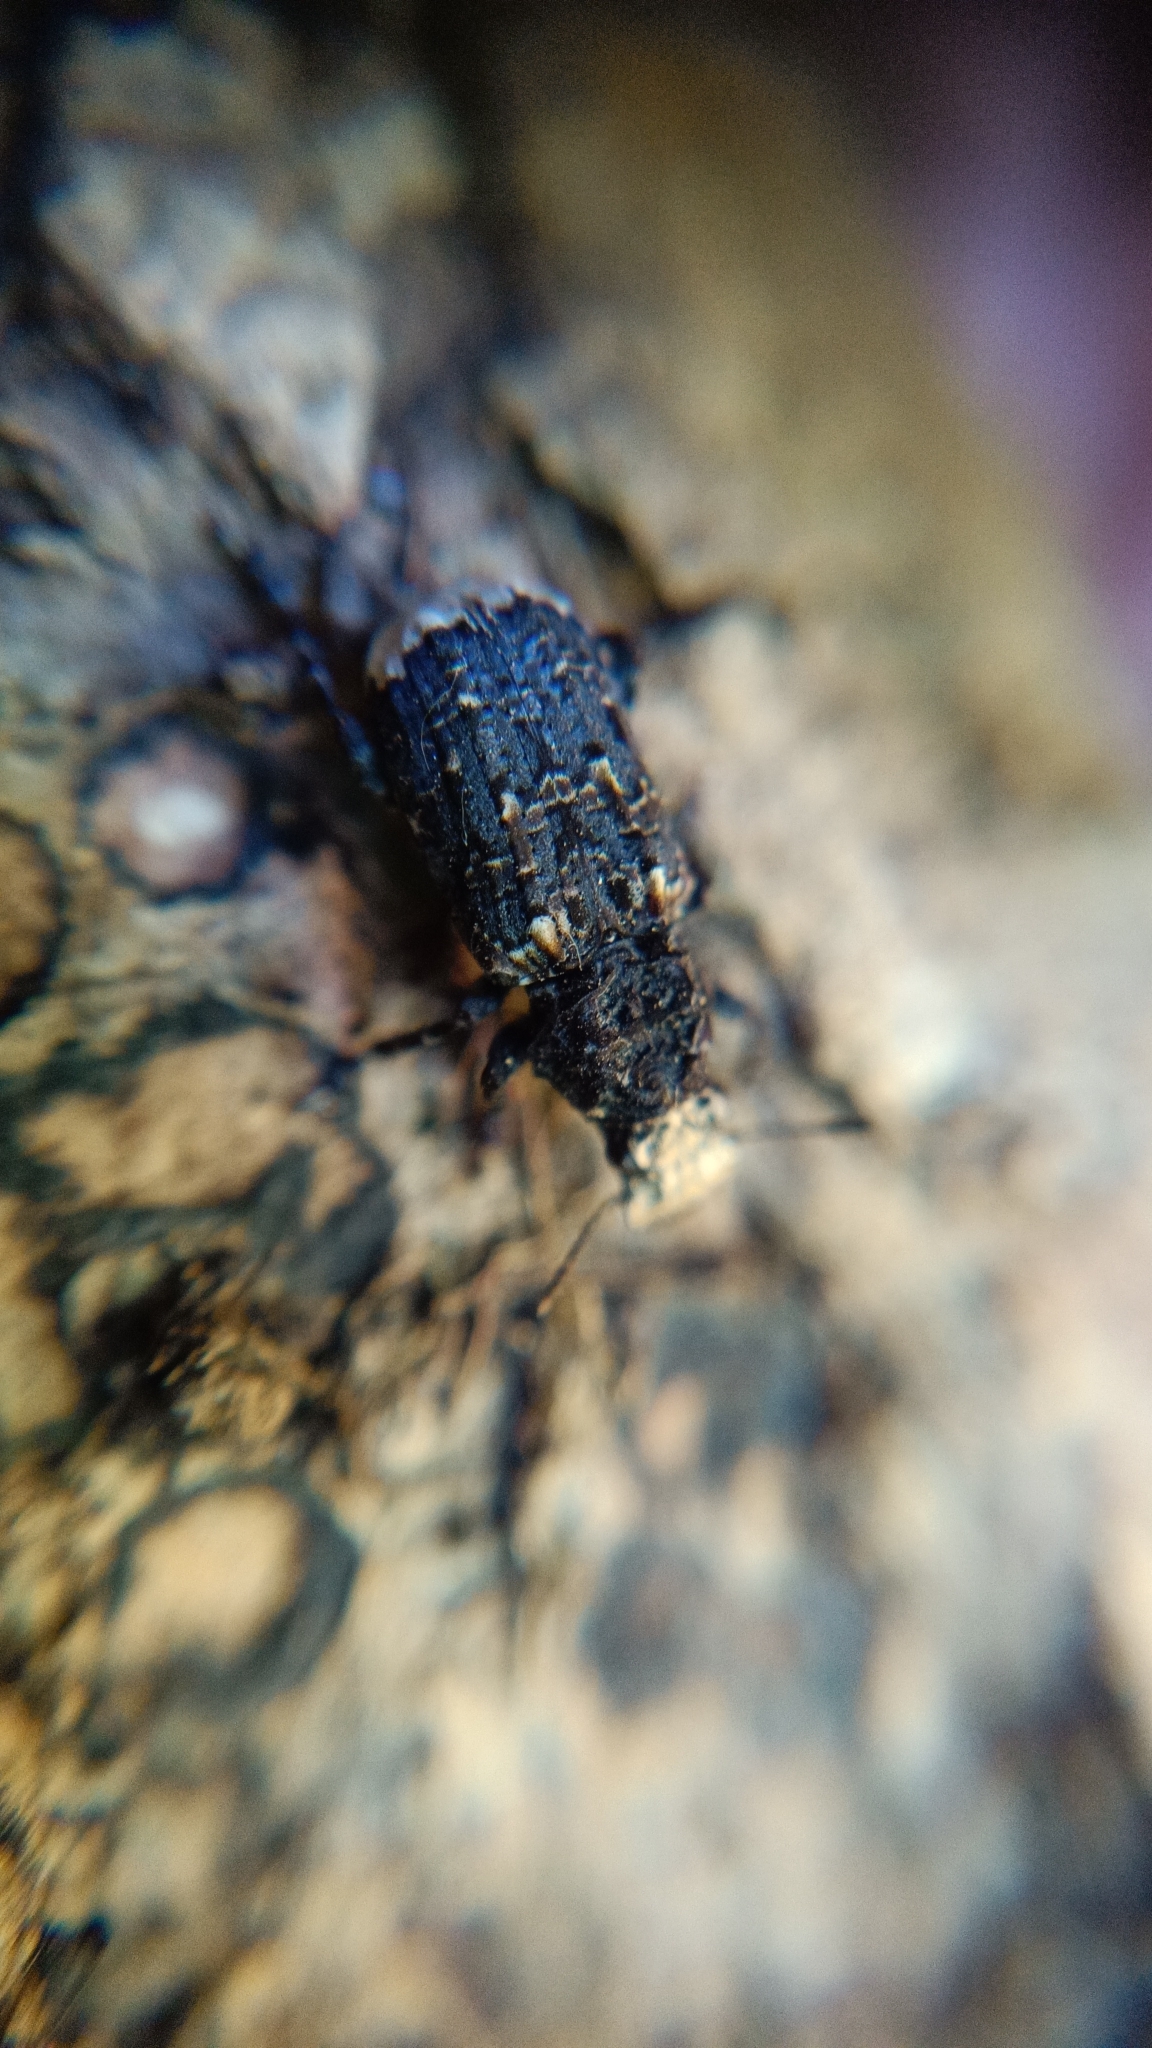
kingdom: Animalia
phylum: Arthropoda
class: Insecta
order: Coleoptera
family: Anthribidae
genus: Platyrhinus
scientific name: Platyrhinus resinosus
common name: Cramp-ball fungus weevil
